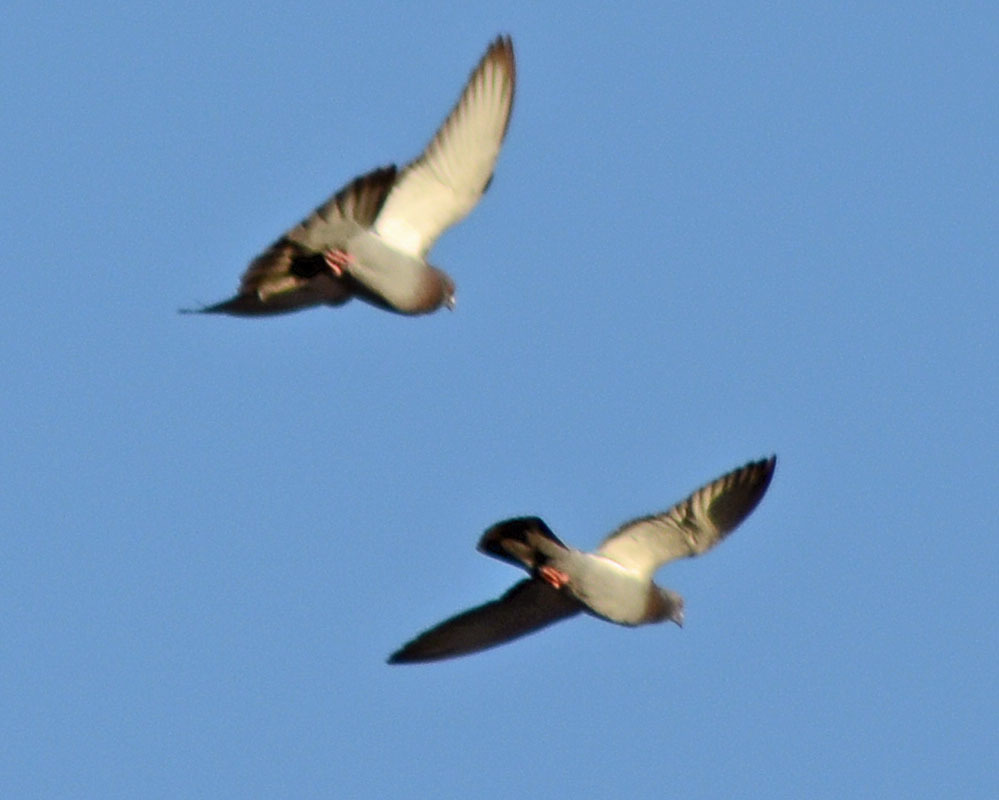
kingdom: Animalia
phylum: Chordata
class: Aves
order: Columbiformes
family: Columbidae
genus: Columba
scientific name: Columba livia
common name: Rock pigeon
